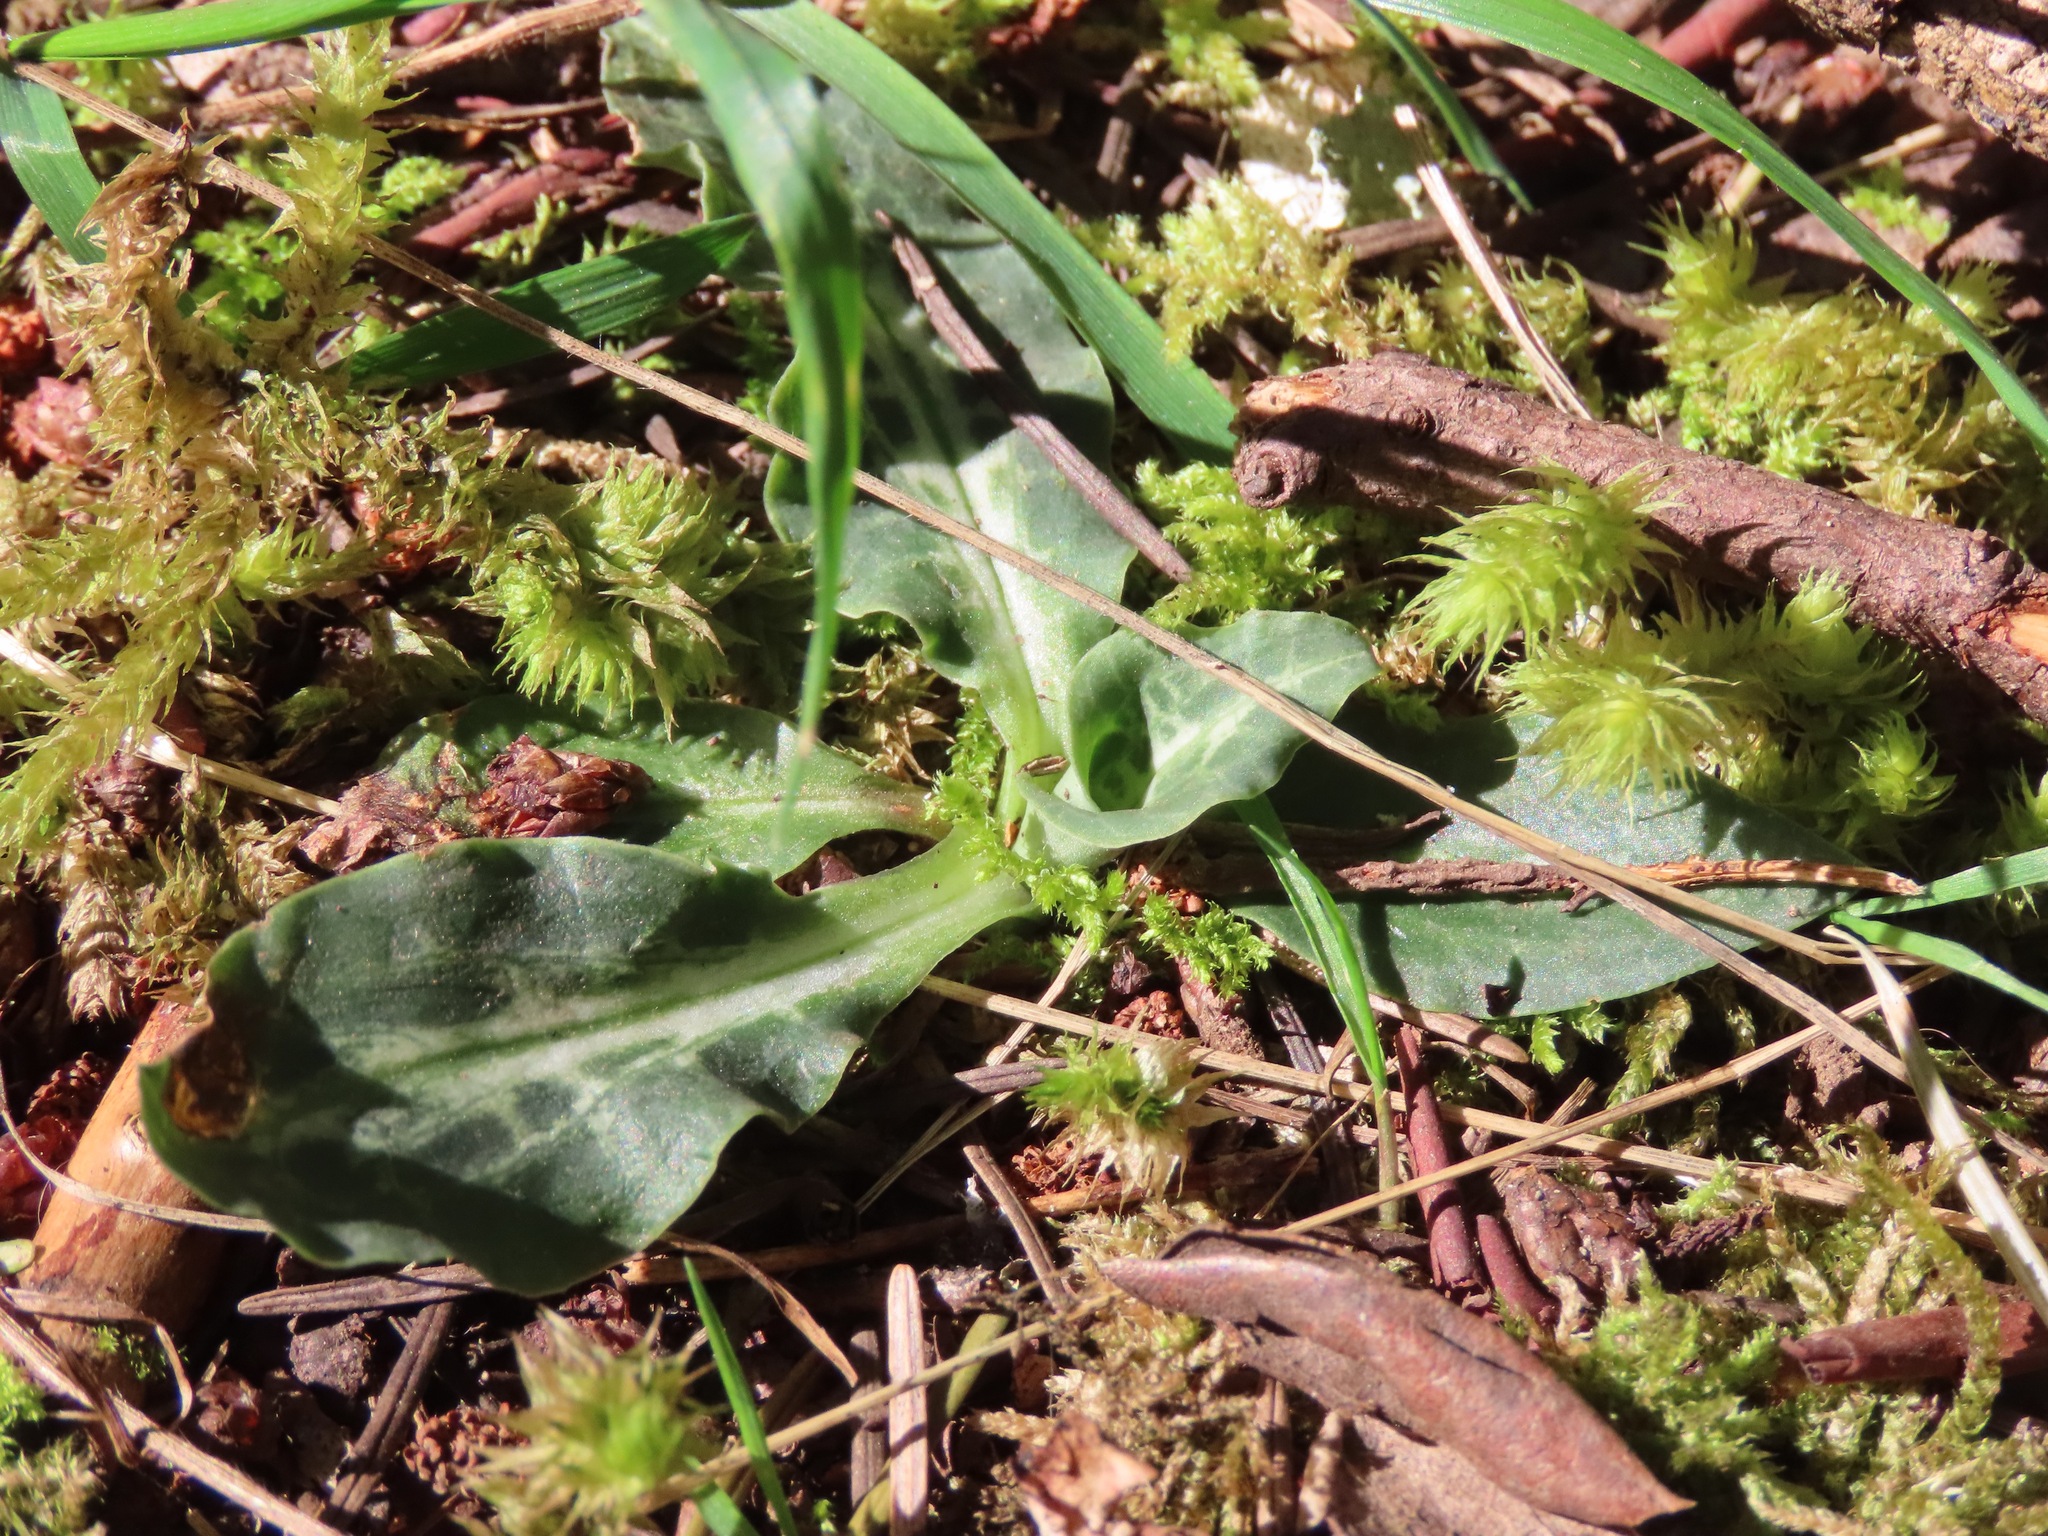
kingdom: Plantae
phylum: Tracheophyta
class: Liliopsida
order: Asparagales
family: Orchidaceae
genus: Goodyera
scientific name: Goodyera oblongifolia
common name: Giant rattlesnake-plantain
